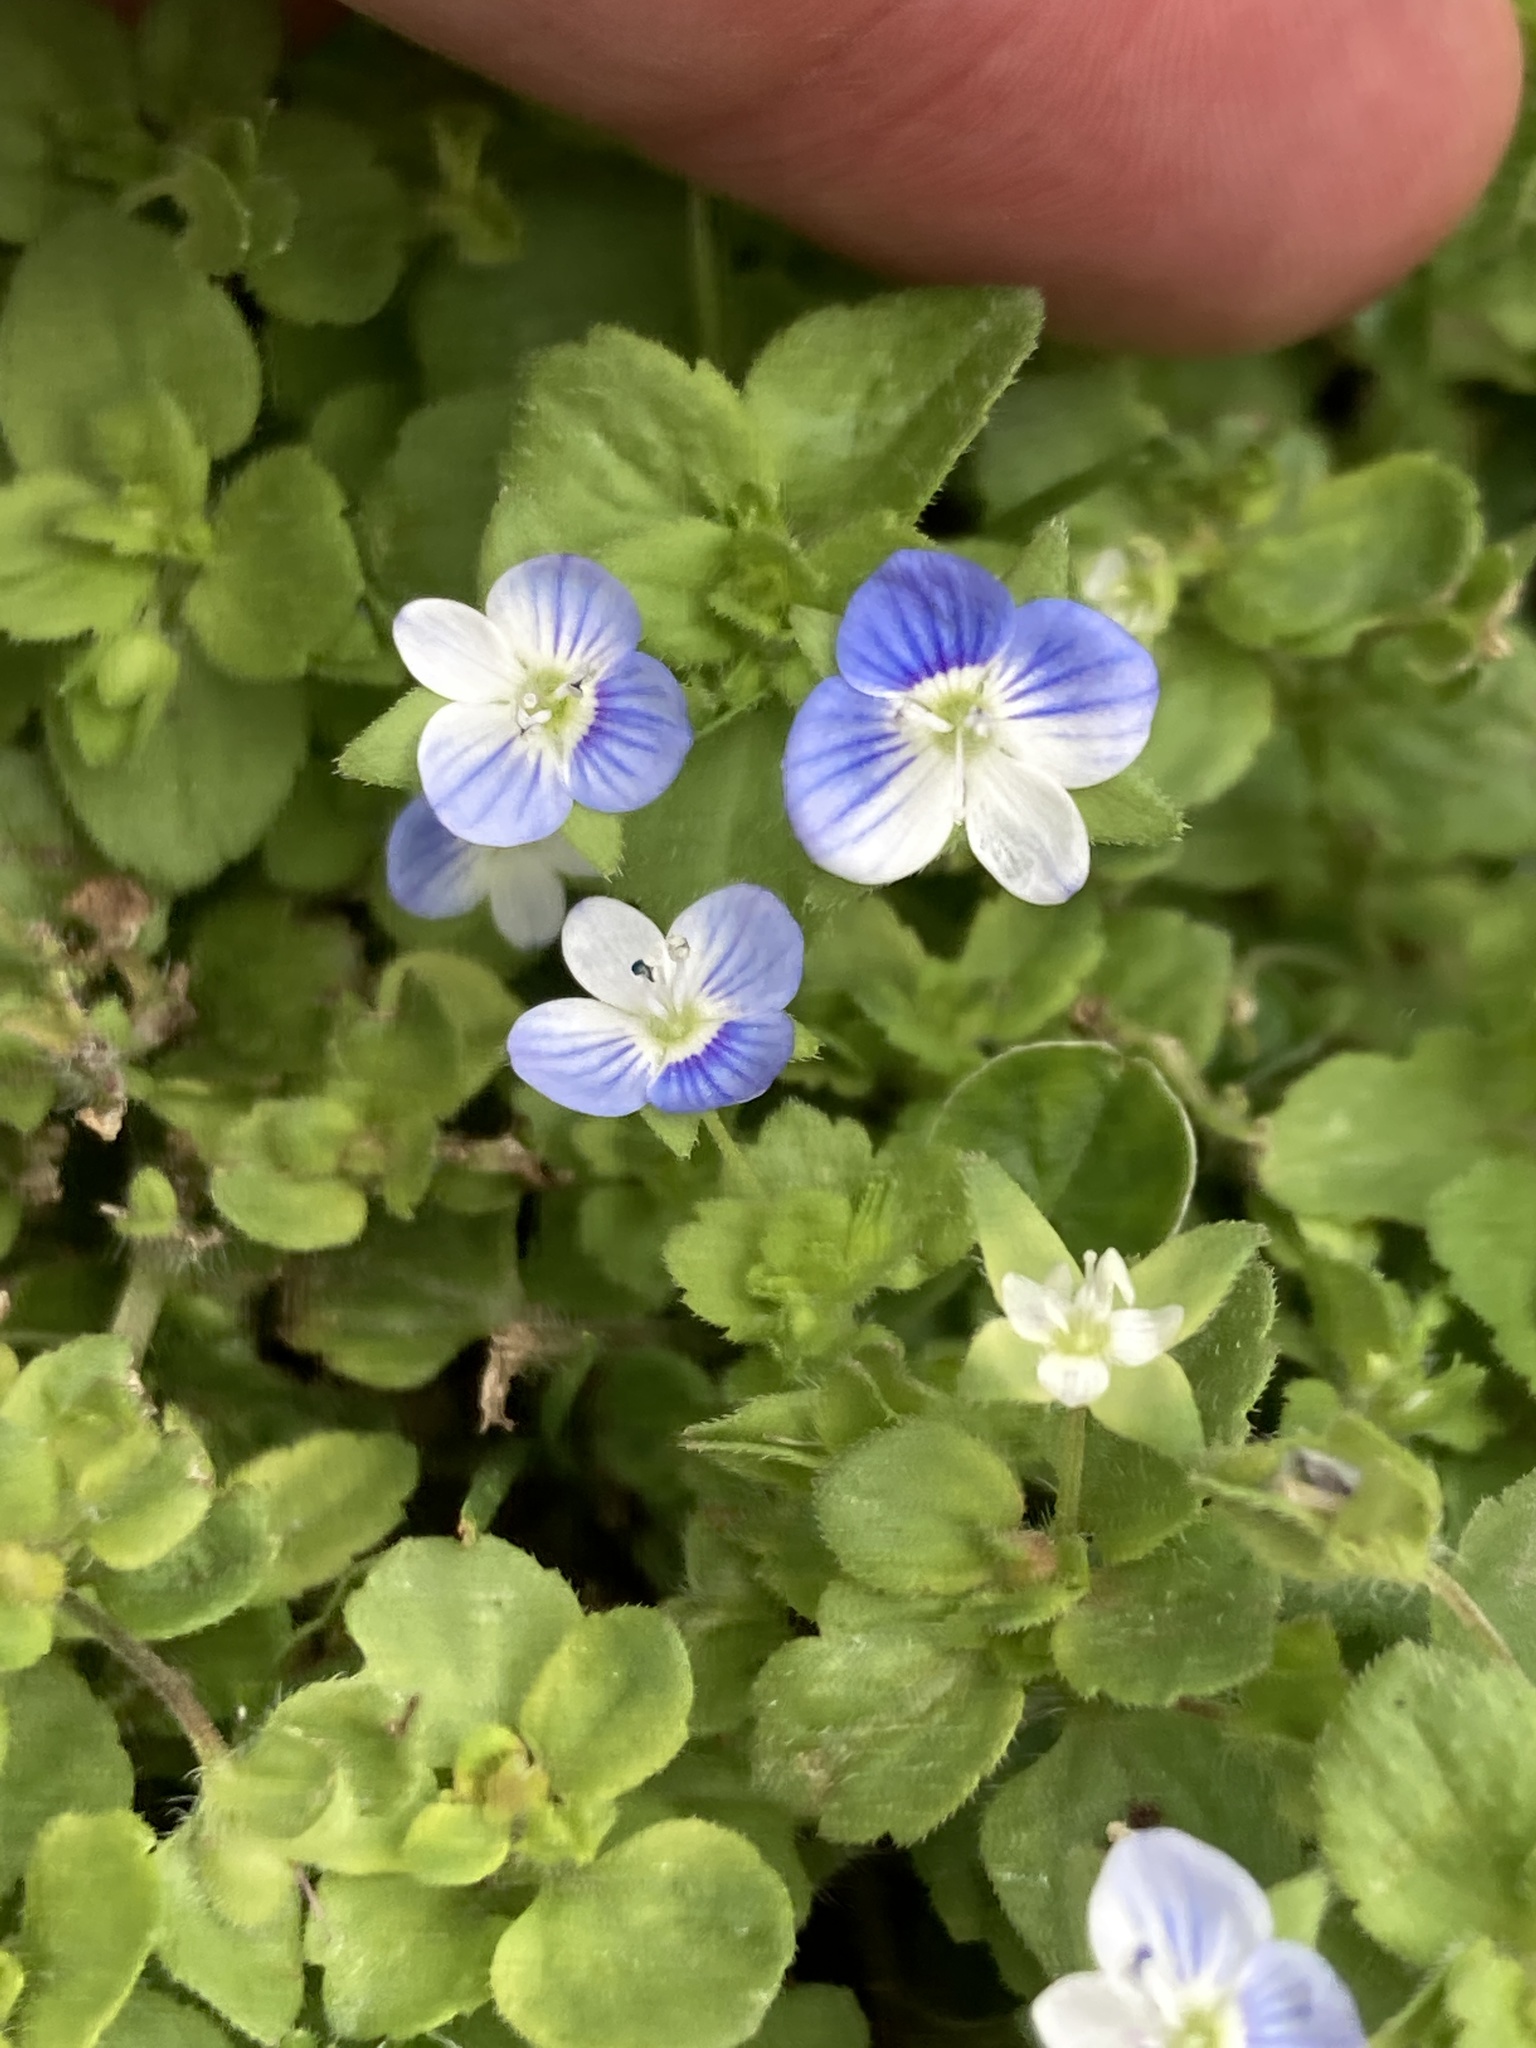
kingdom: Plantae
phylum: Tracheophyta
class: Magnoliopsida
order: Lamiales
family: Plantaginaceae
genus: Veronica
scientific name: Veronica persica
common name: Common field-speedwell
